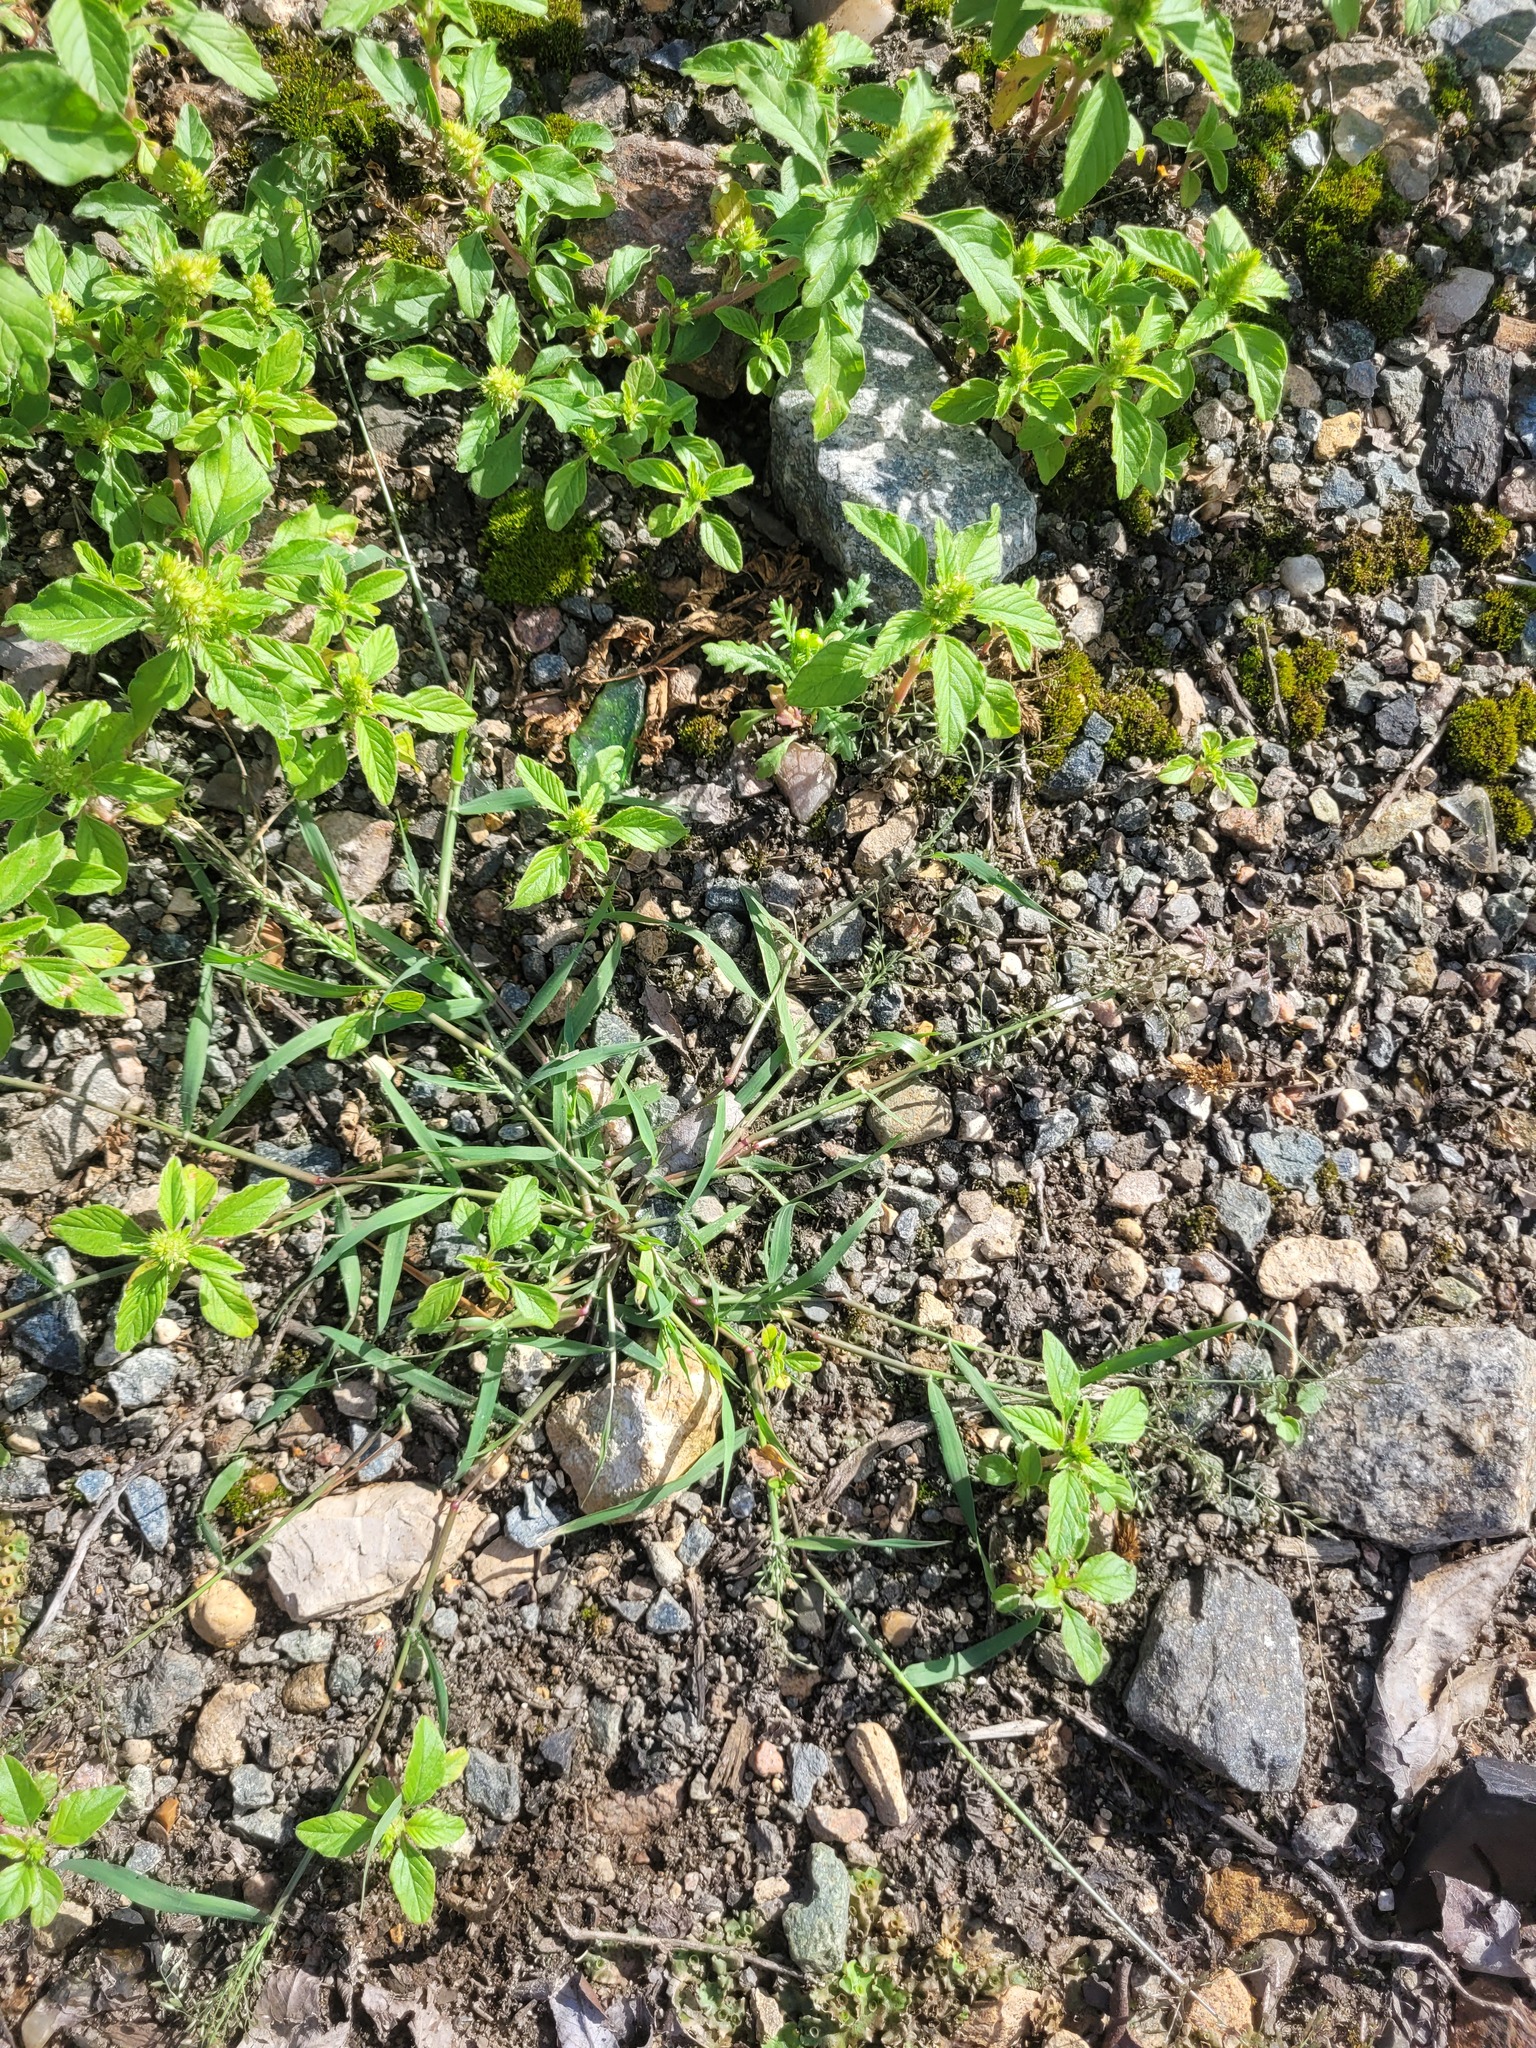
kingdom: Plantae
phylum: Tracheophyta
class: Liliopsida
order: Poales
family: Poaceae
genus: Eragrostis
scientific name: Eragrostis minor
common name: Small love-grass
